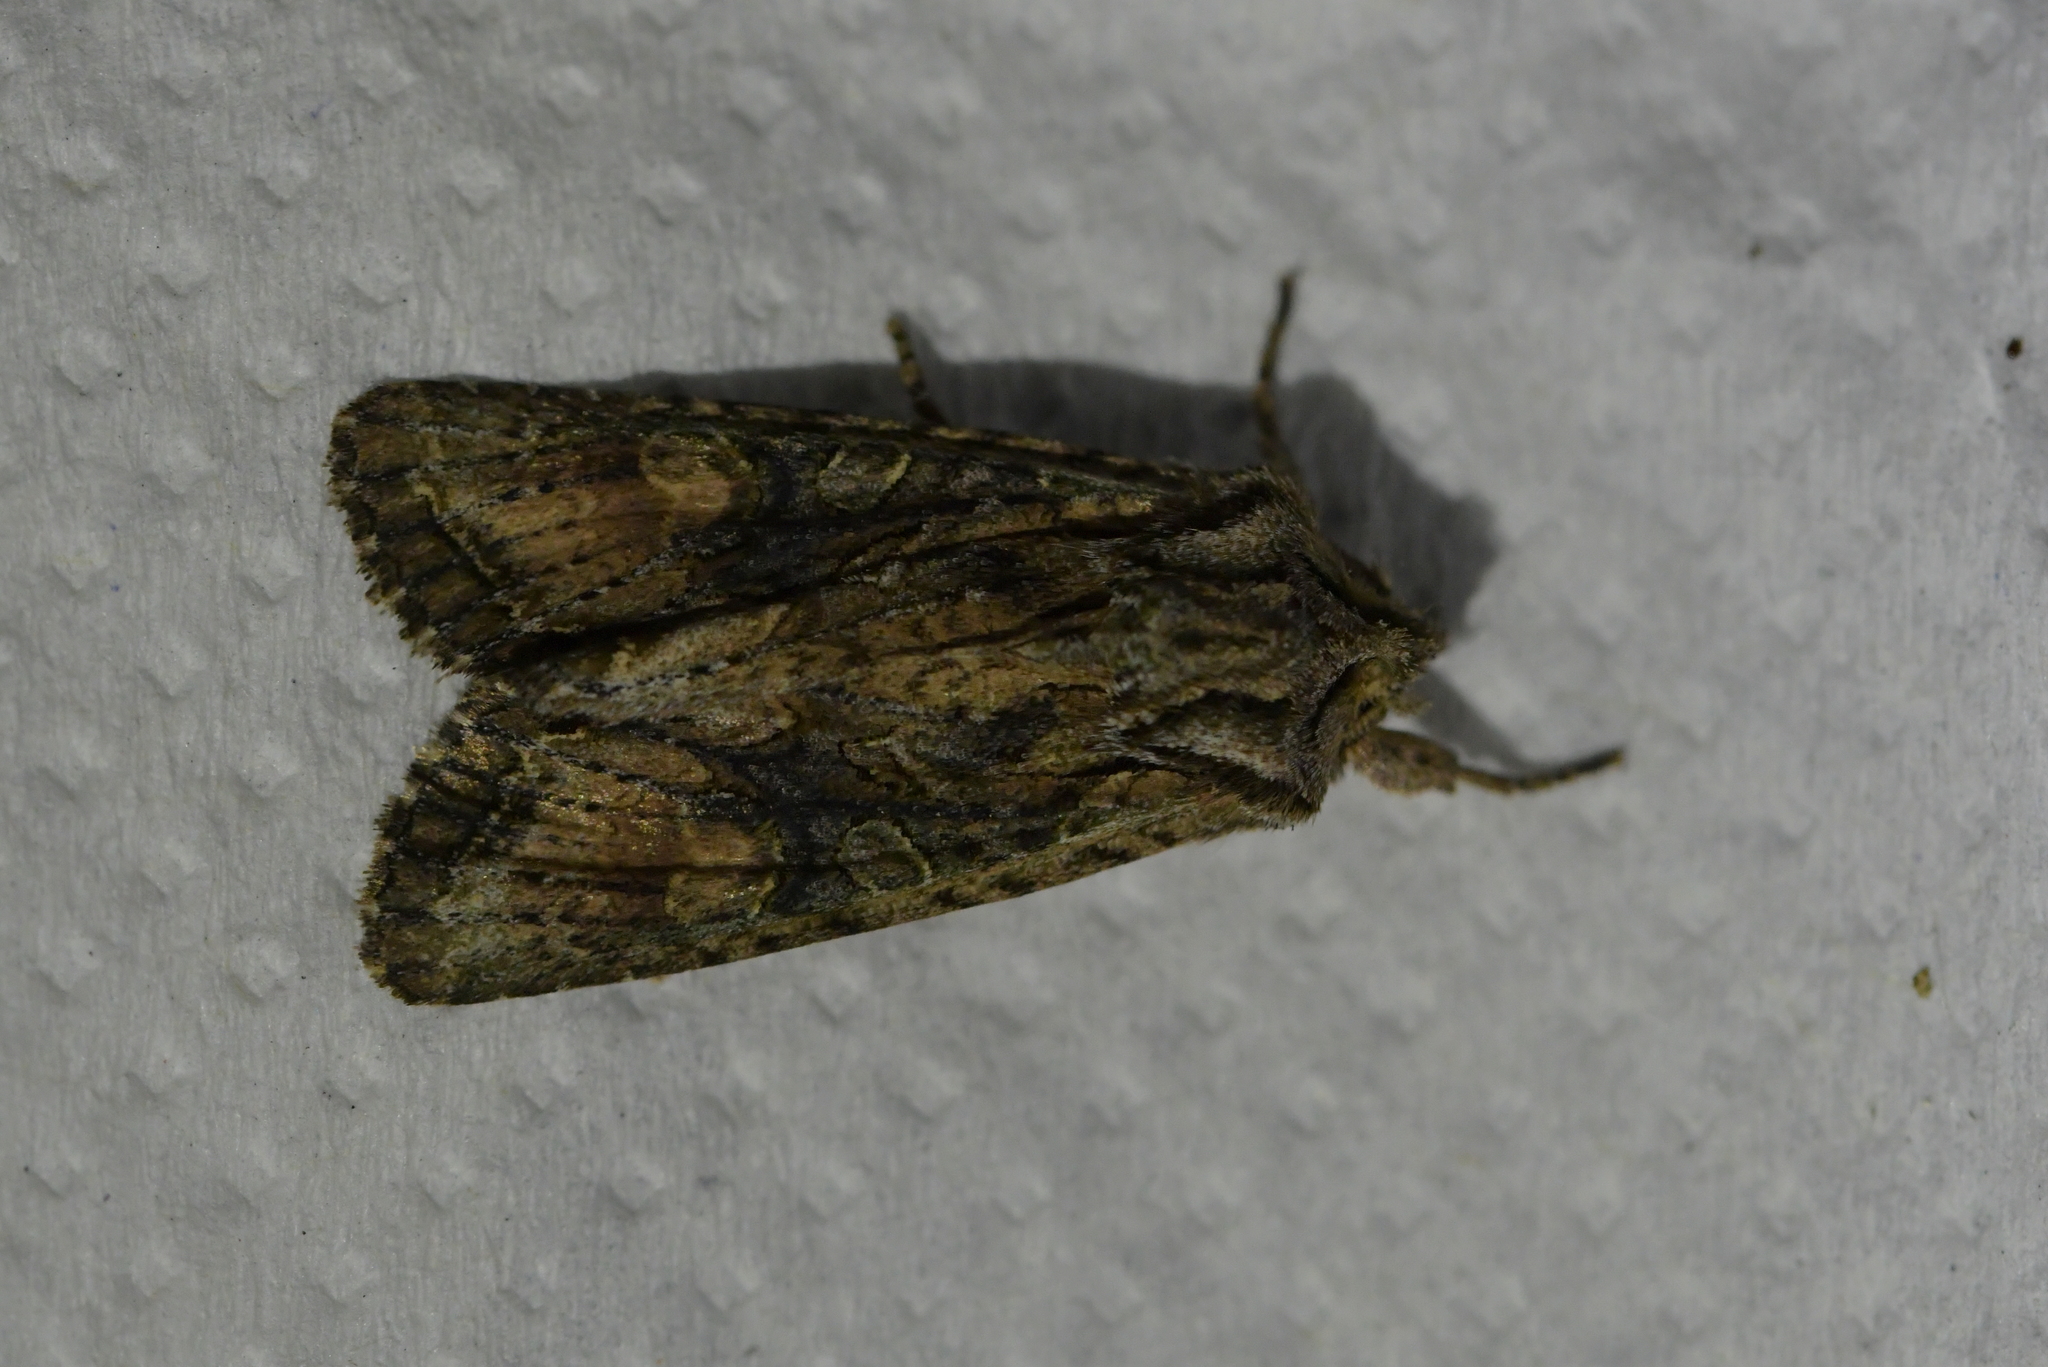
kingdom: Animalia
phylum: Arthropoda
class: Insecta
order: Lepidoptera
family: Noctuidae
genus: Ichneutica
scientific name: Ichneutica mutans
